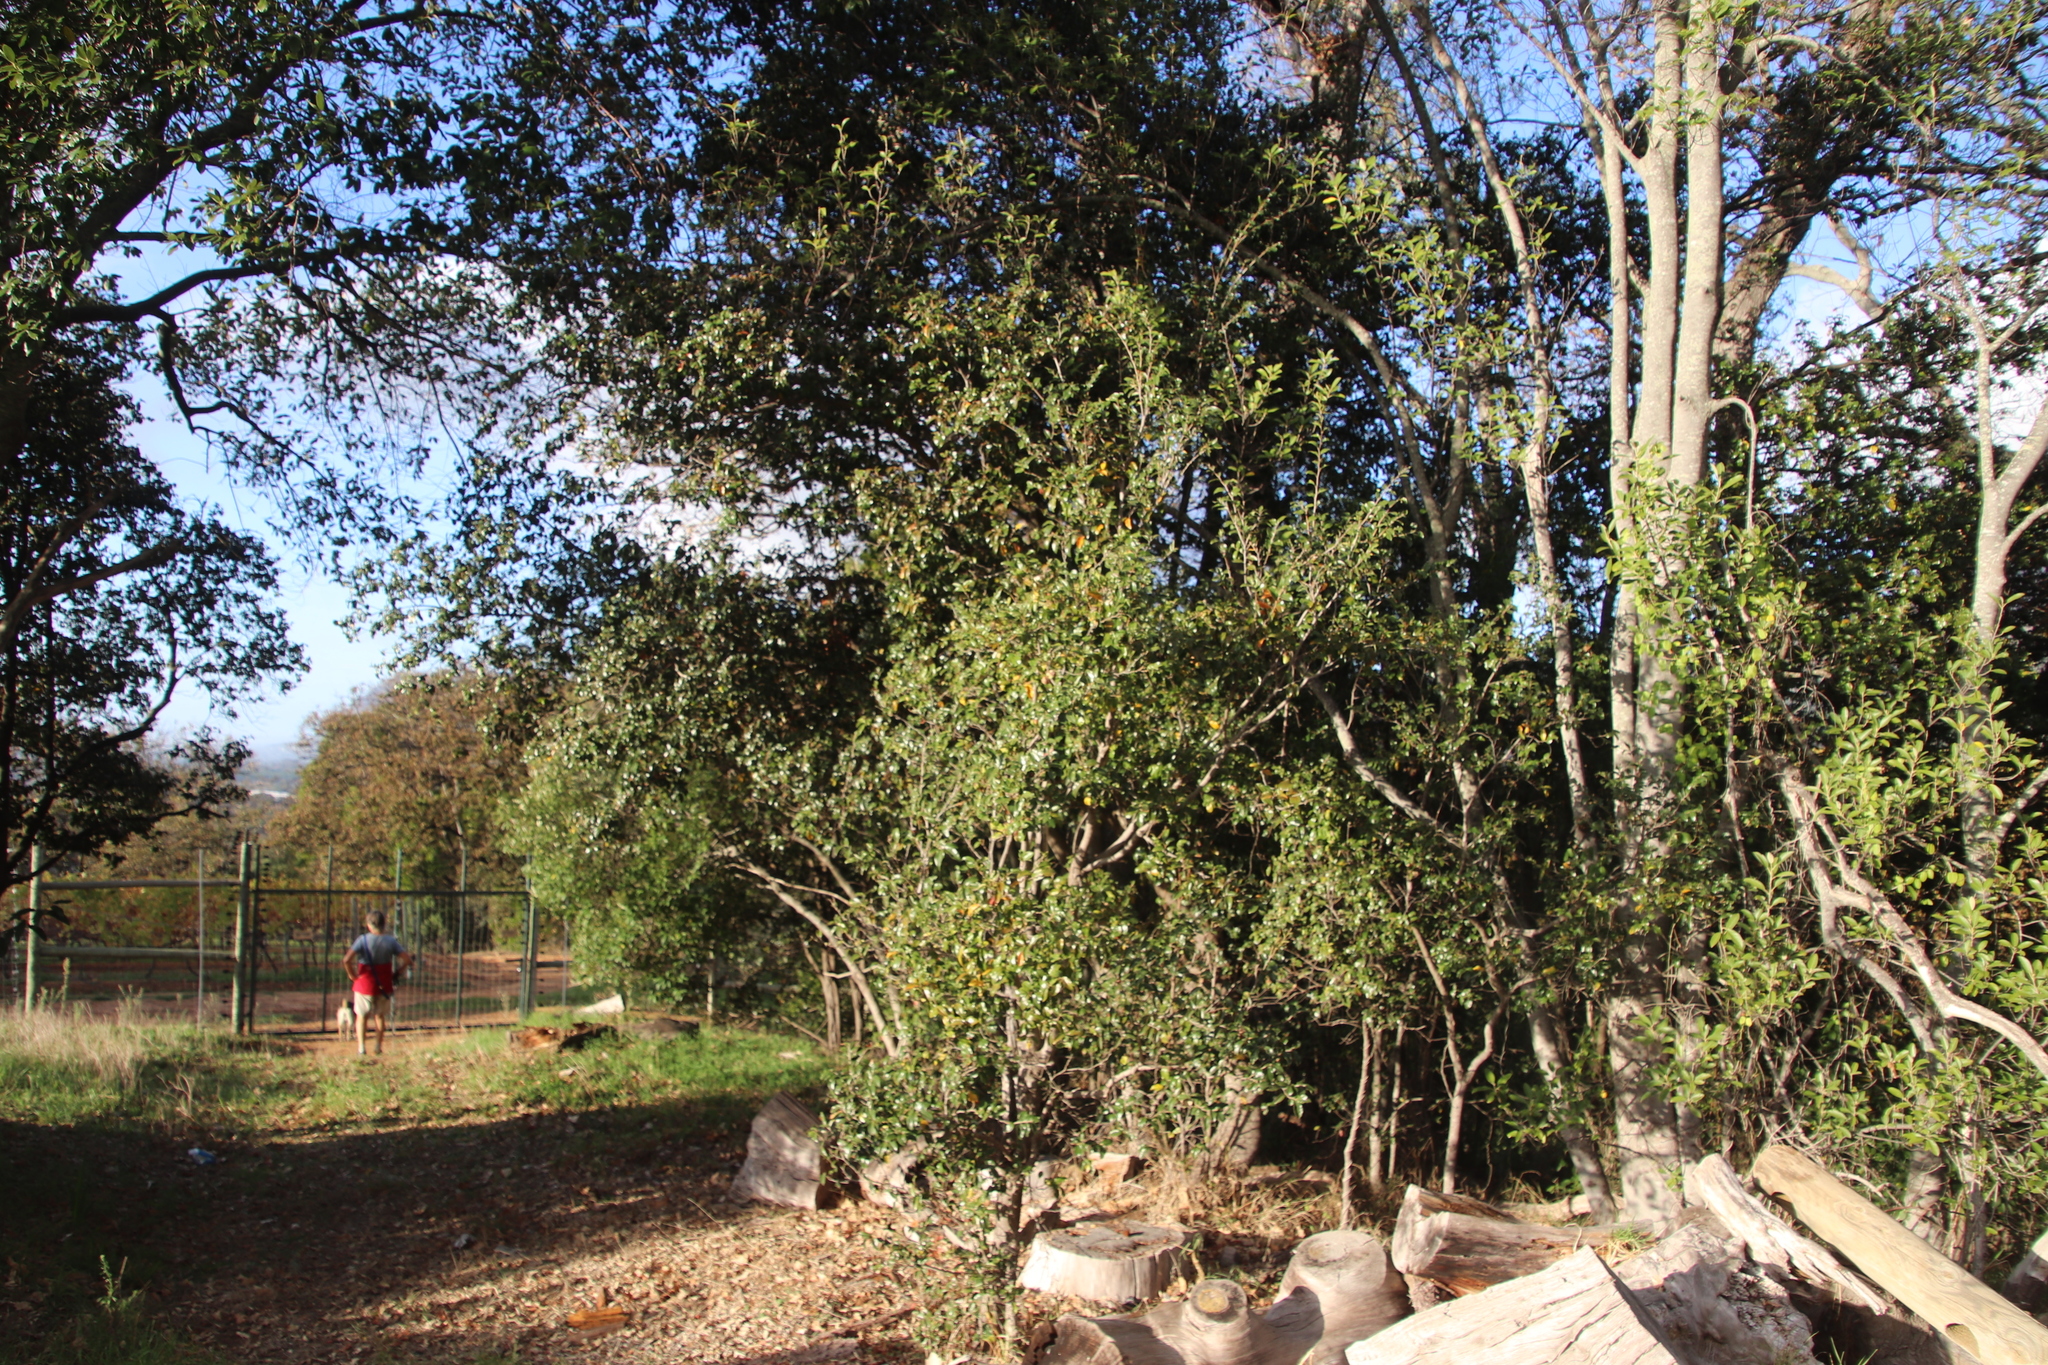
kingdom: Plantae
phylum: Tracheophyta
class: Magnoliopsida
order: Malpighiales
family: Achariaceae
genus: Kiggelaria
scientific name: Kiggelaria africana
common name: Wild peach
